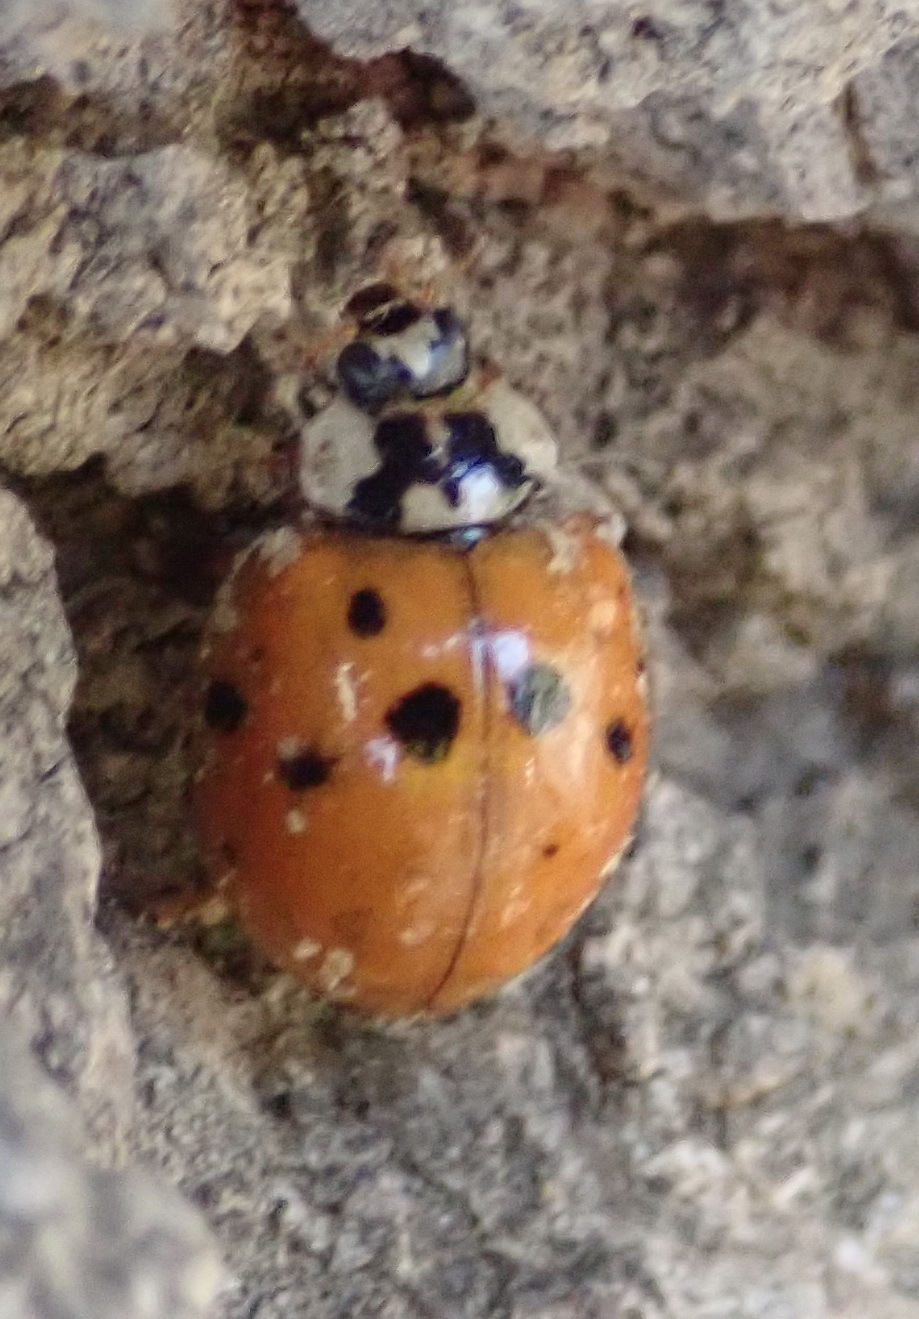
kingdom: Animalia
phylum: Arthropoda
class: Insecta
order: Coleoptera
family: Coccinellidae
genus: Harmonia
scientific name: Harmonia axyridis
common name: Harlequin ladybird
